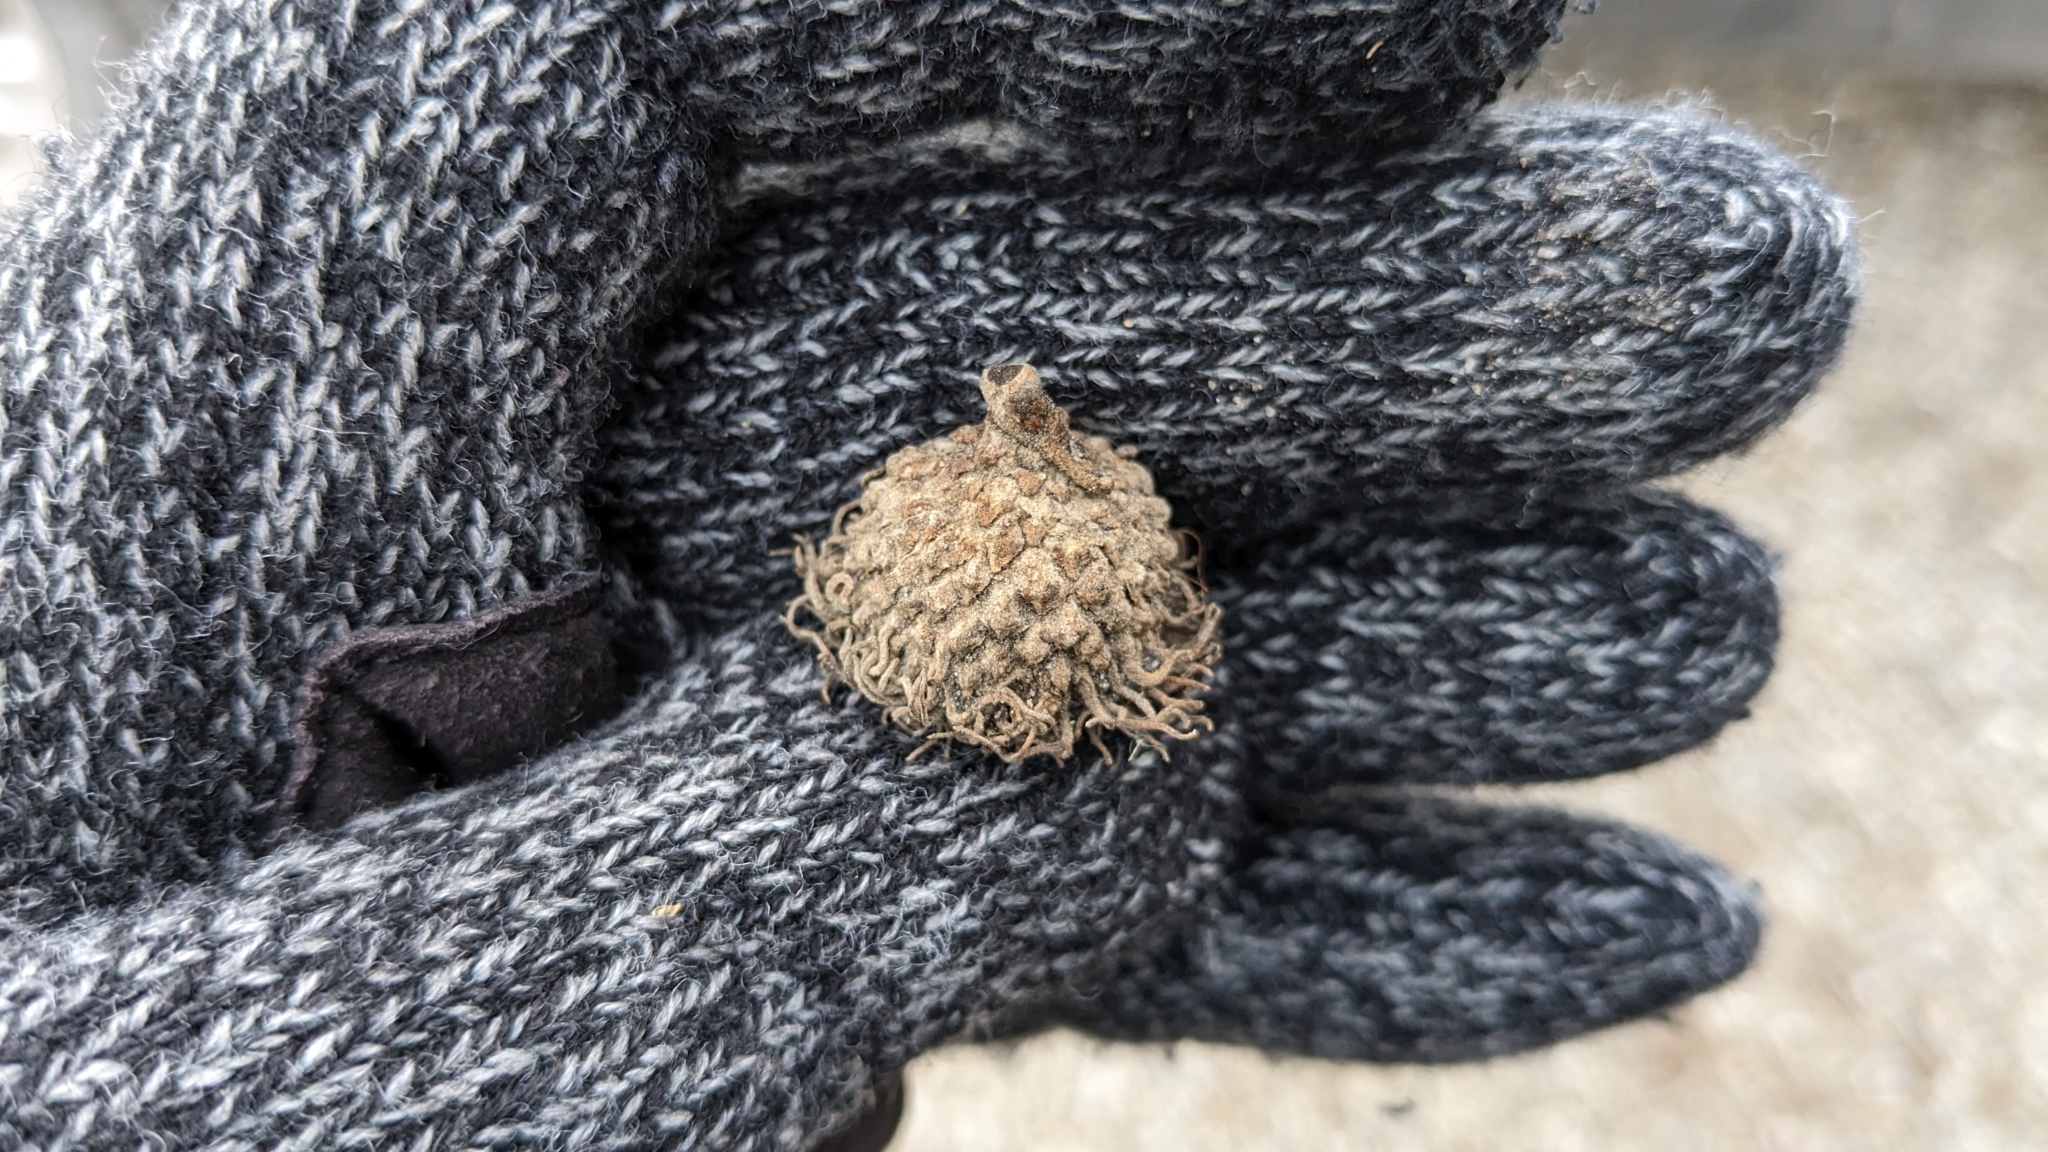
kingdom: Plantae
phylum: Tracheophyta
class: Magnoliopsida
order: Fagales
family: Fagaceae
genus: Quercus
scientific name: Quercus macrocarpa
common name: Bur oak
